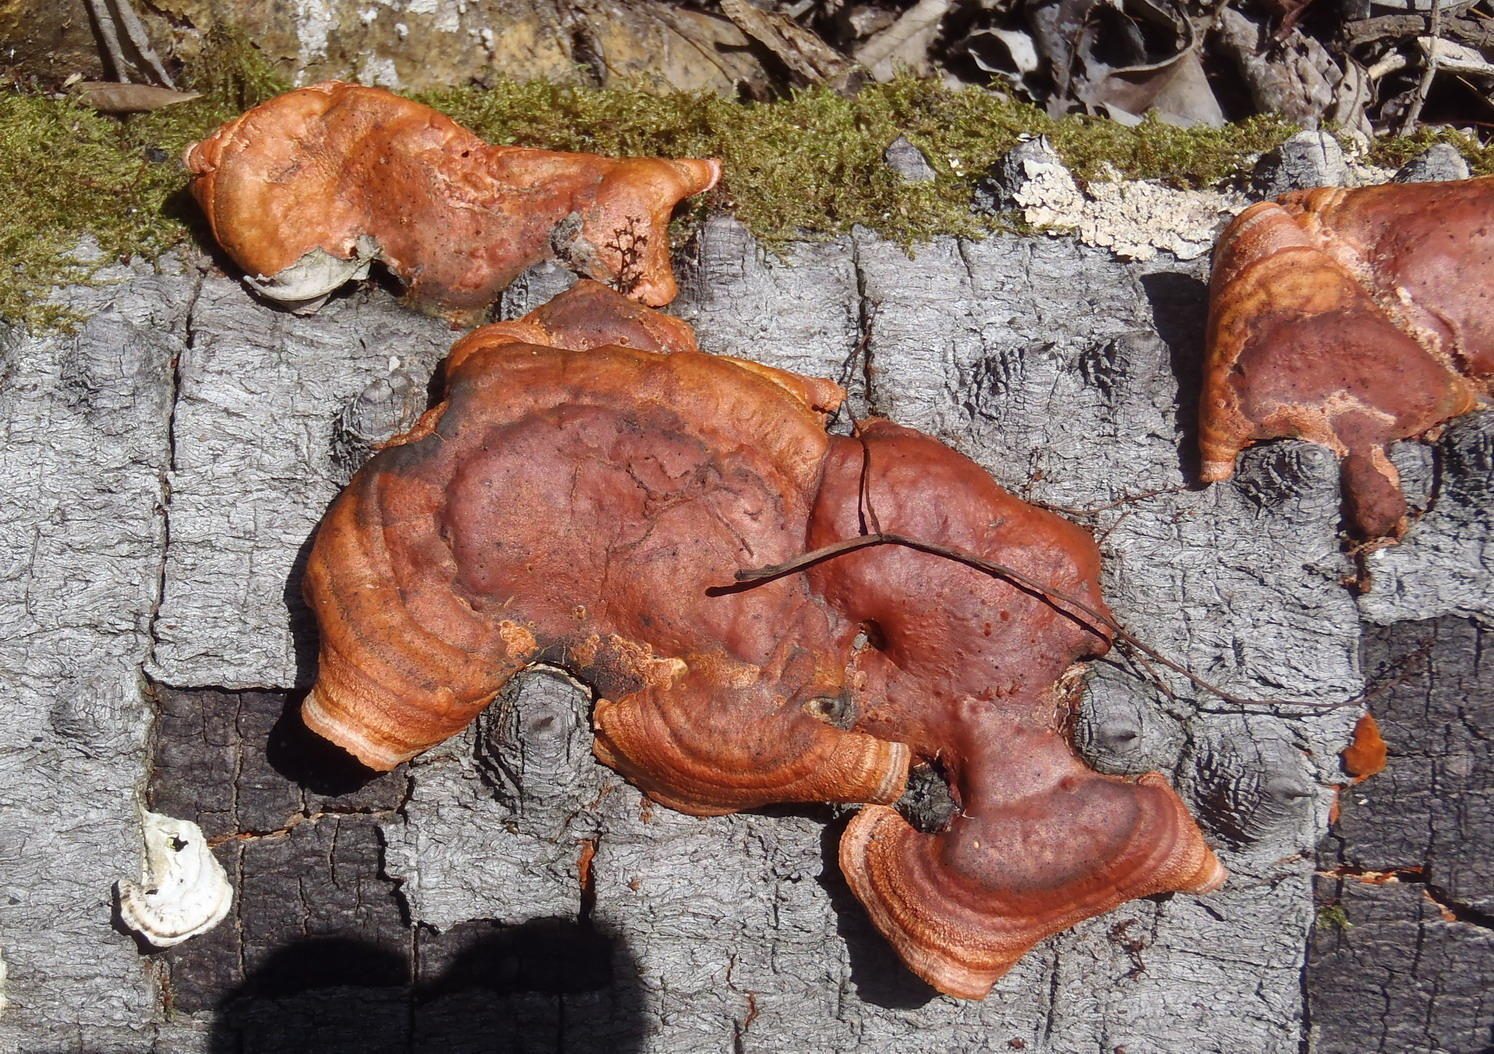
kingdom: Fungi
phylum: Basidiomycota
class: Agaricomycetes
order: Polyporales
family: Polyporaceae
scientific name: Polyporaceae
